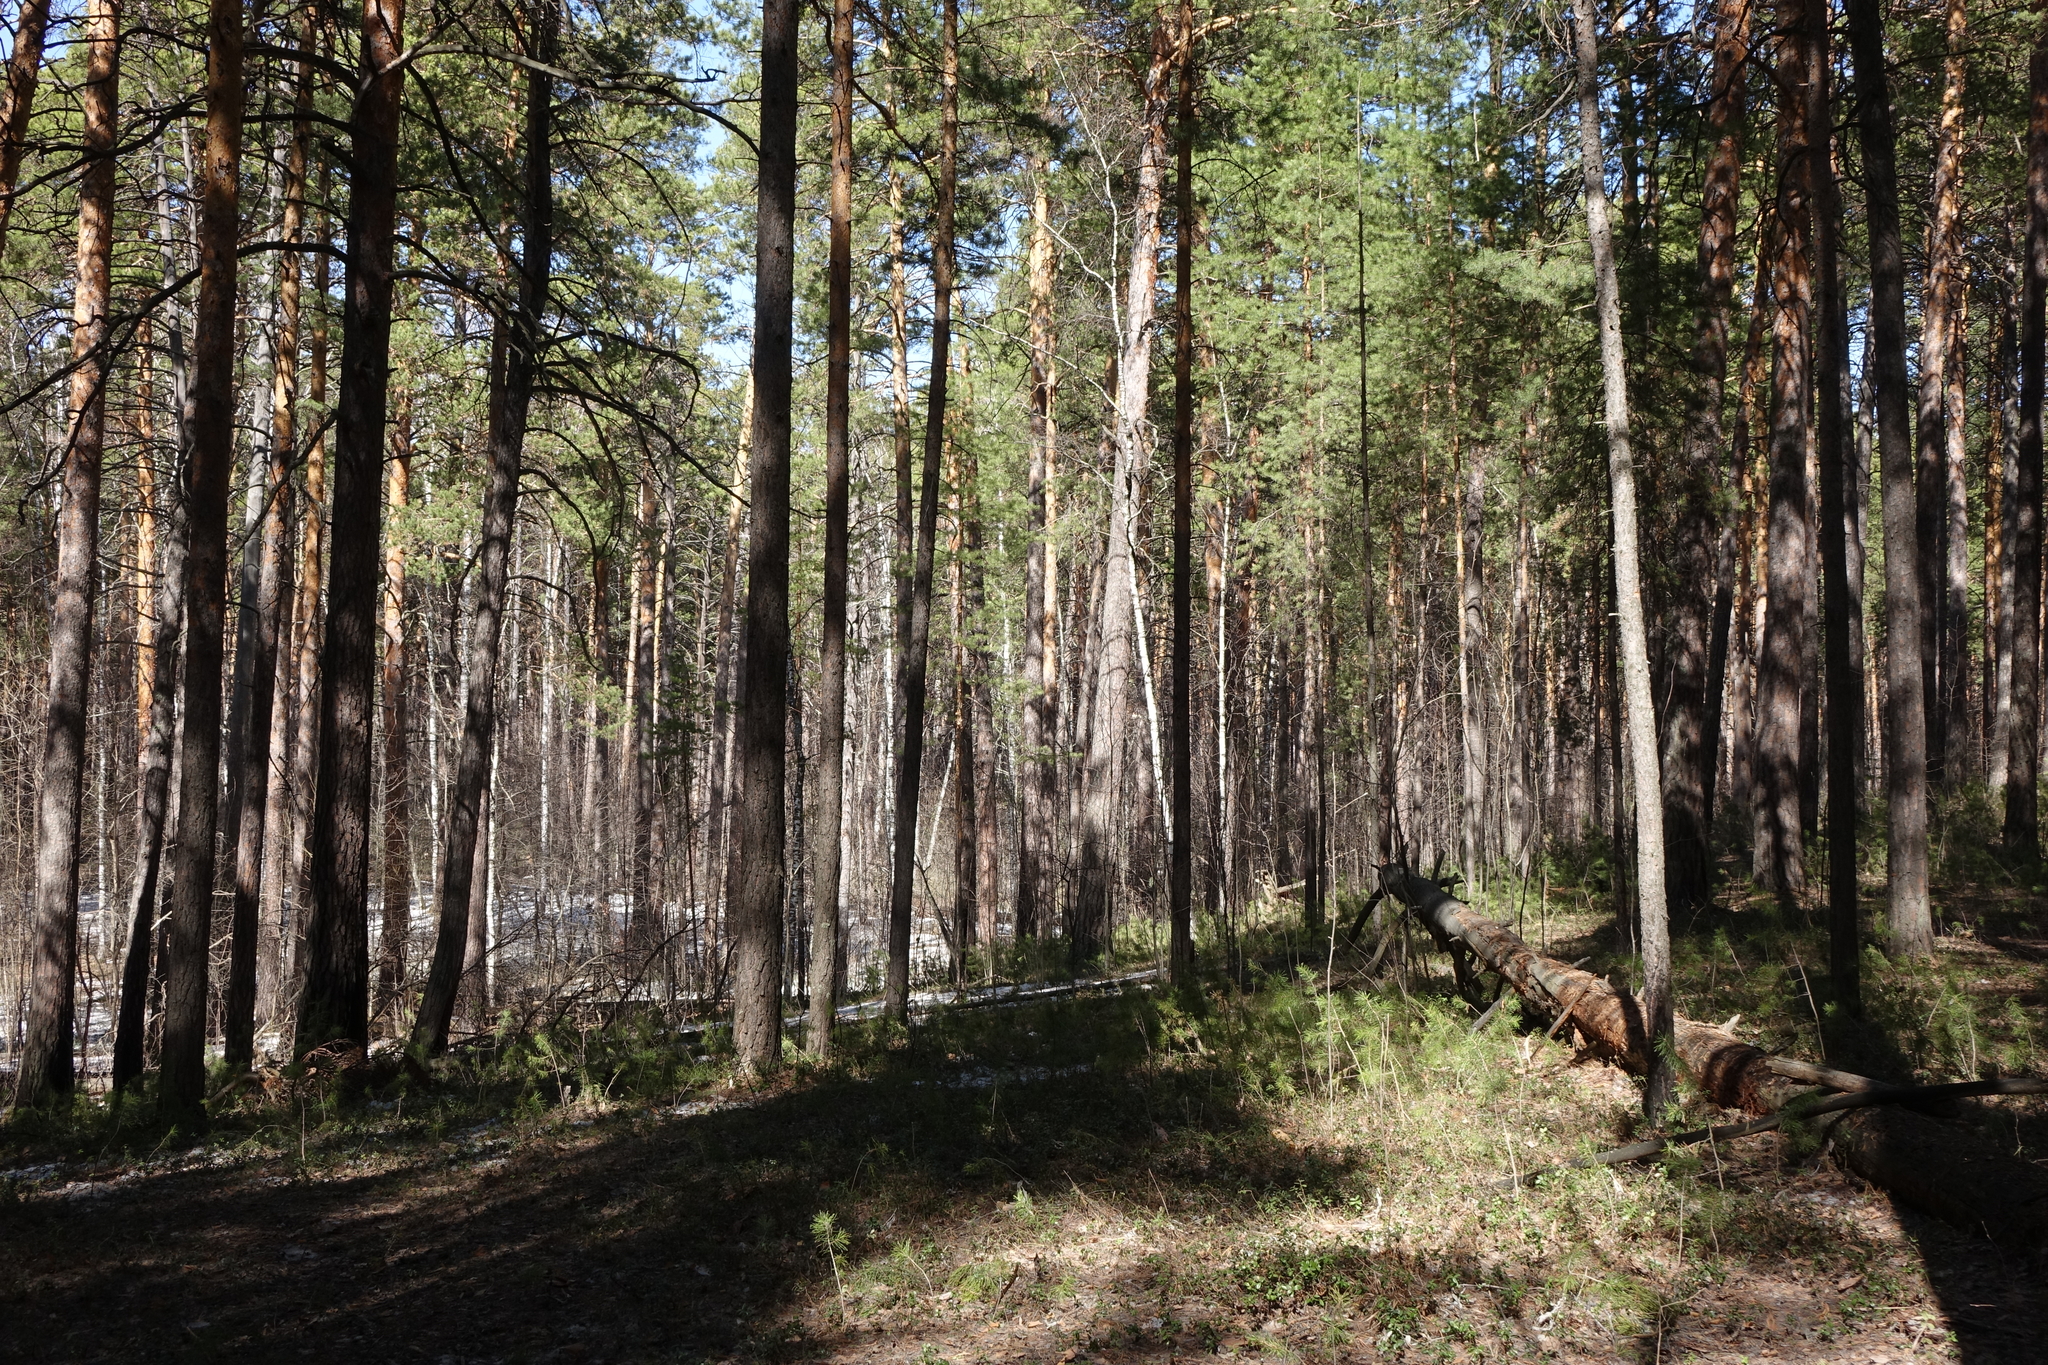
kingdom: Plantae
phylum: Tracheophyta
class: Pinopsida
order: Pinales
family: Pinaceae
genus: Pinus
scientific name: Pinus sylvestris
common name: Scots pine
